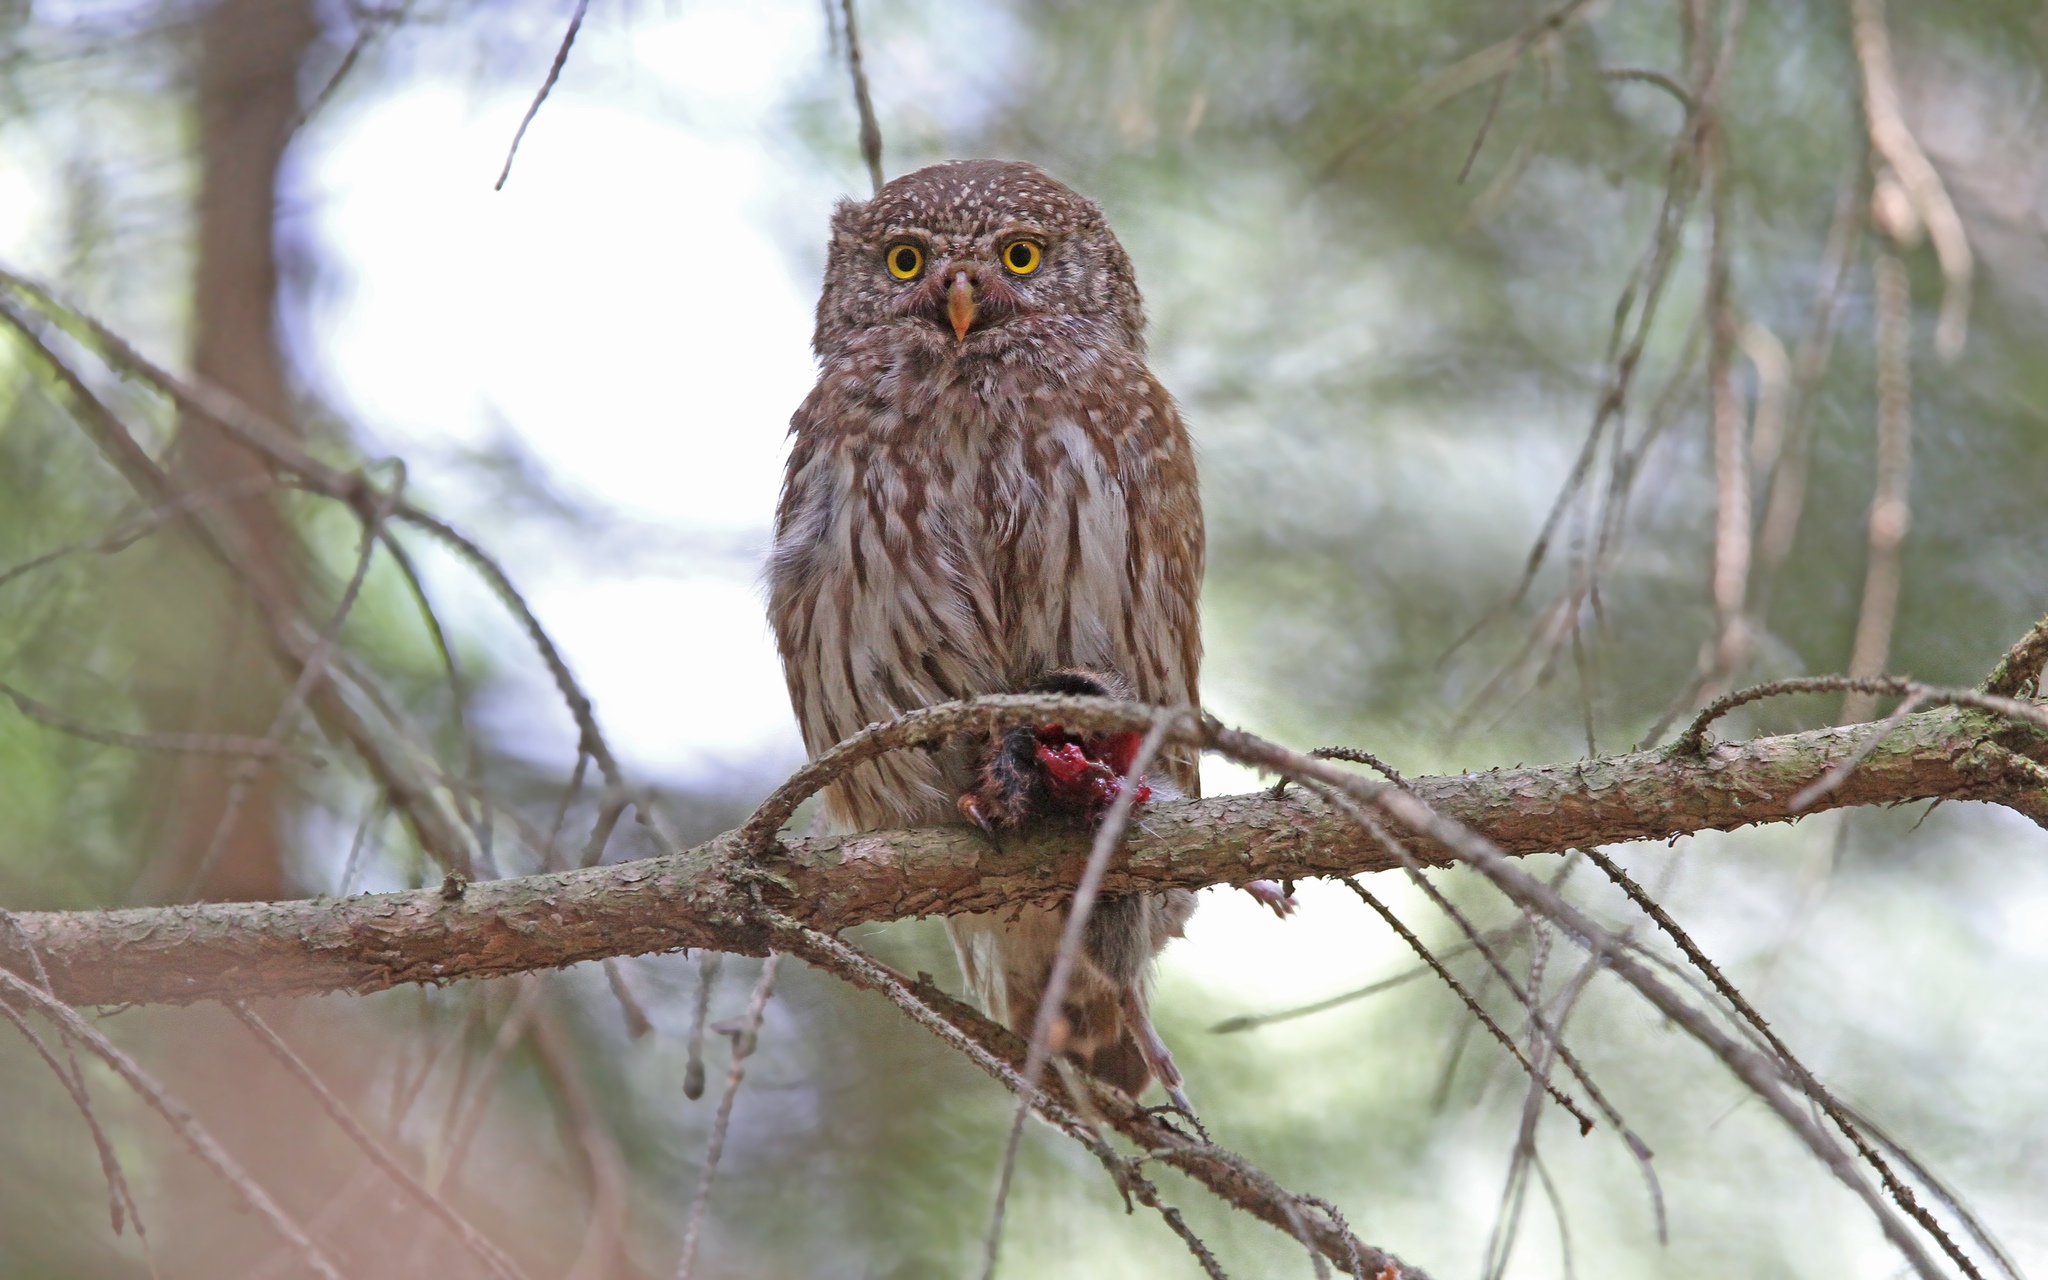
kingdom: Animalia
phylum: Chordata
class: Aves
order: Strigiformes
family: Strigidae
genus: Glaucidium
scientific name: Glaucidium passerinum
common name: Eurasian pygmy owl
